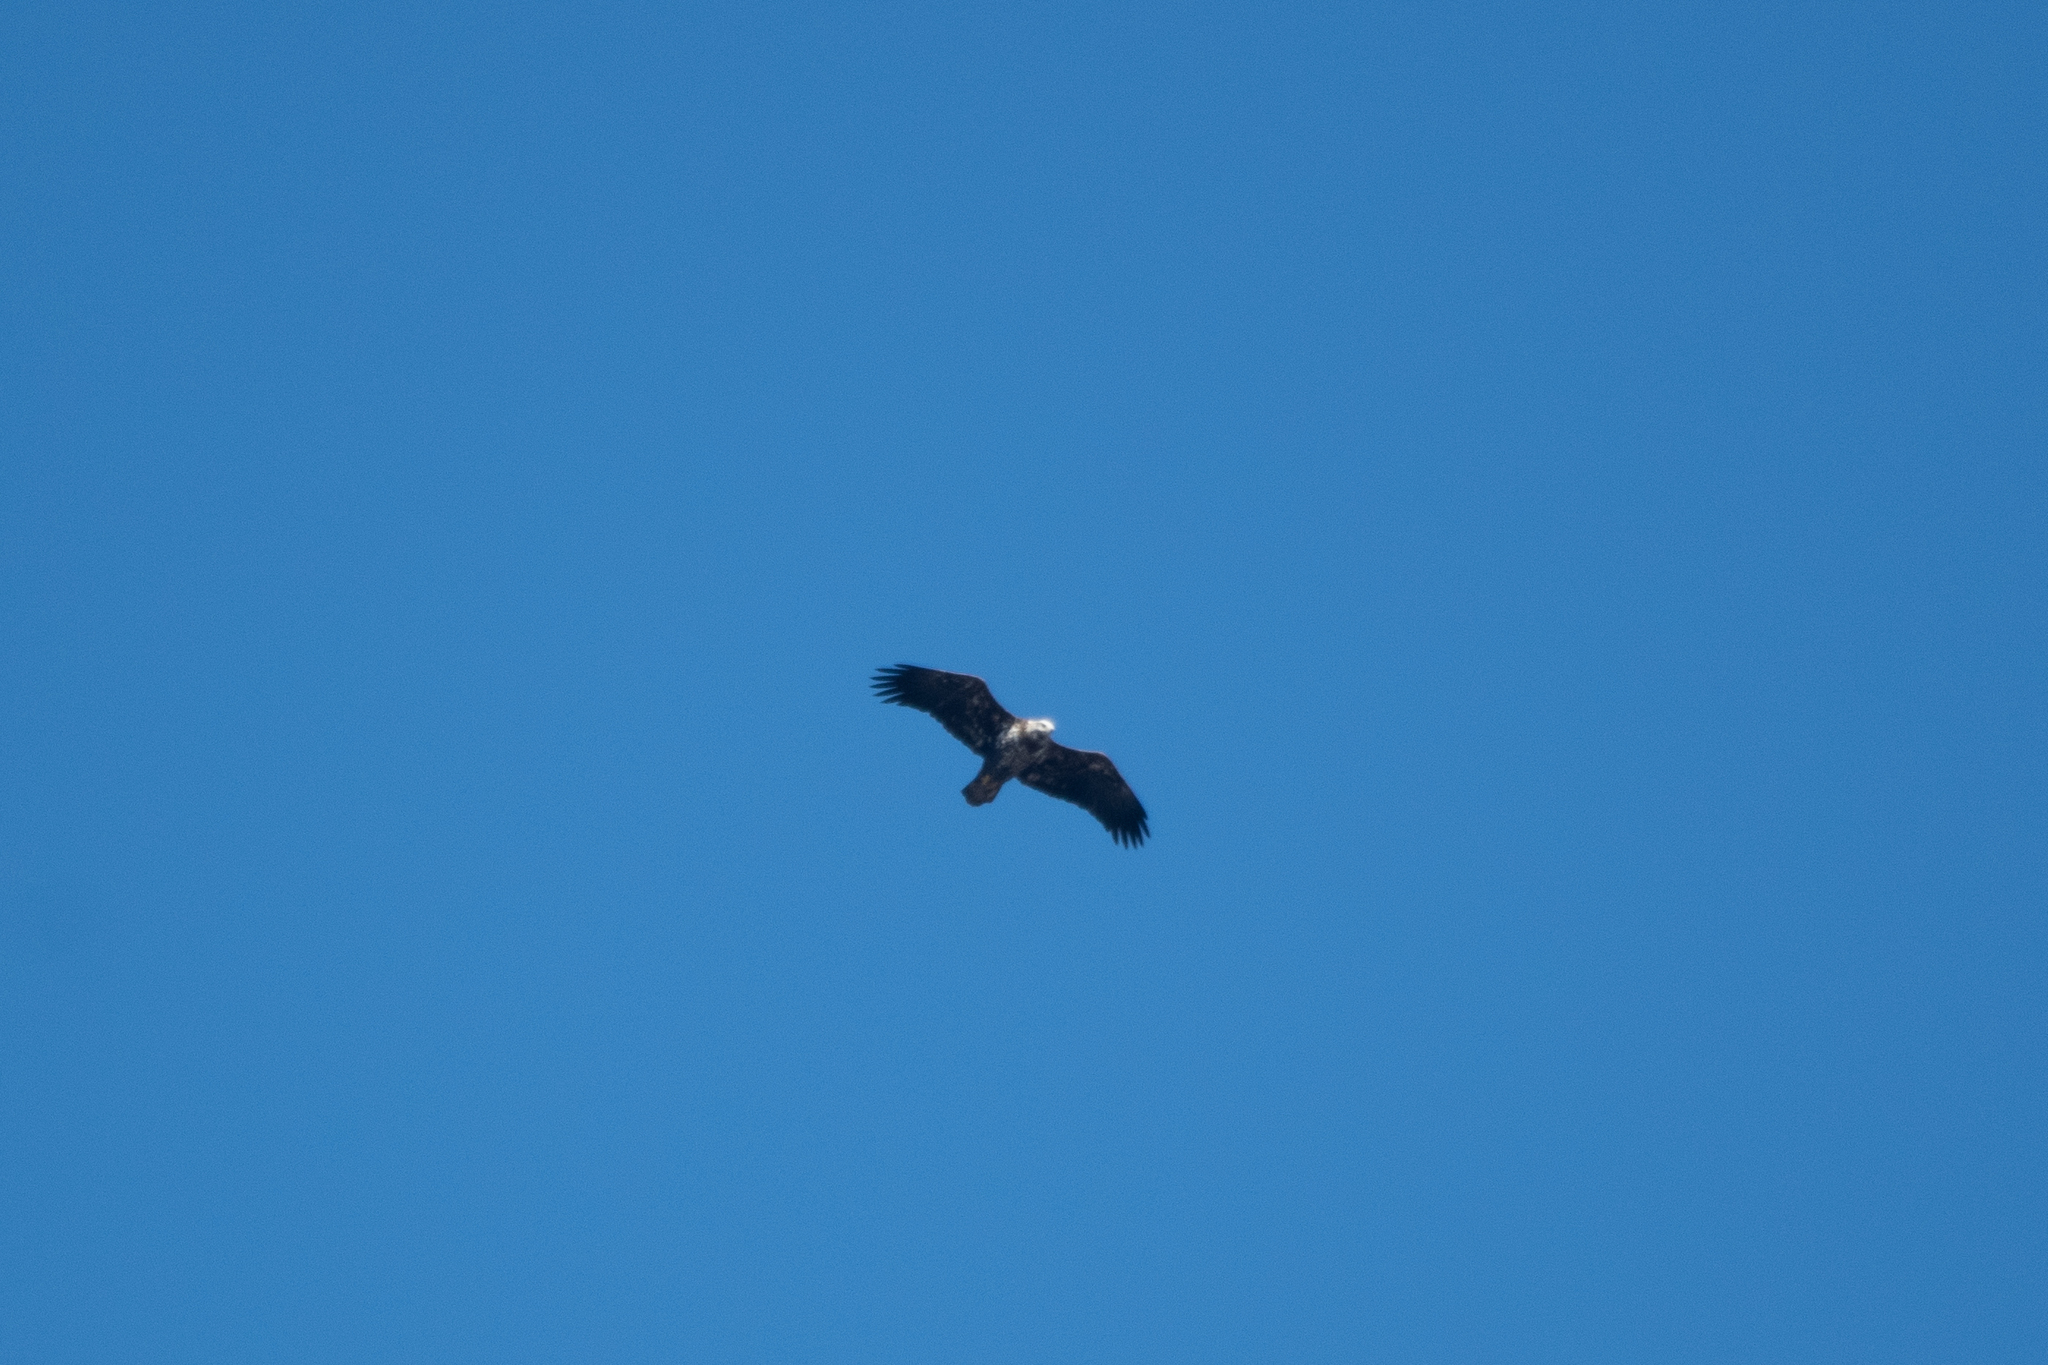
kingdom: Animalia
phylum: Chordata
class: Aves
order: Accipitriformes
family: Accipitridae
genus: Haliaeetus
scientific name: Haliaeetus leucocephalus
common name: Bald eagle
